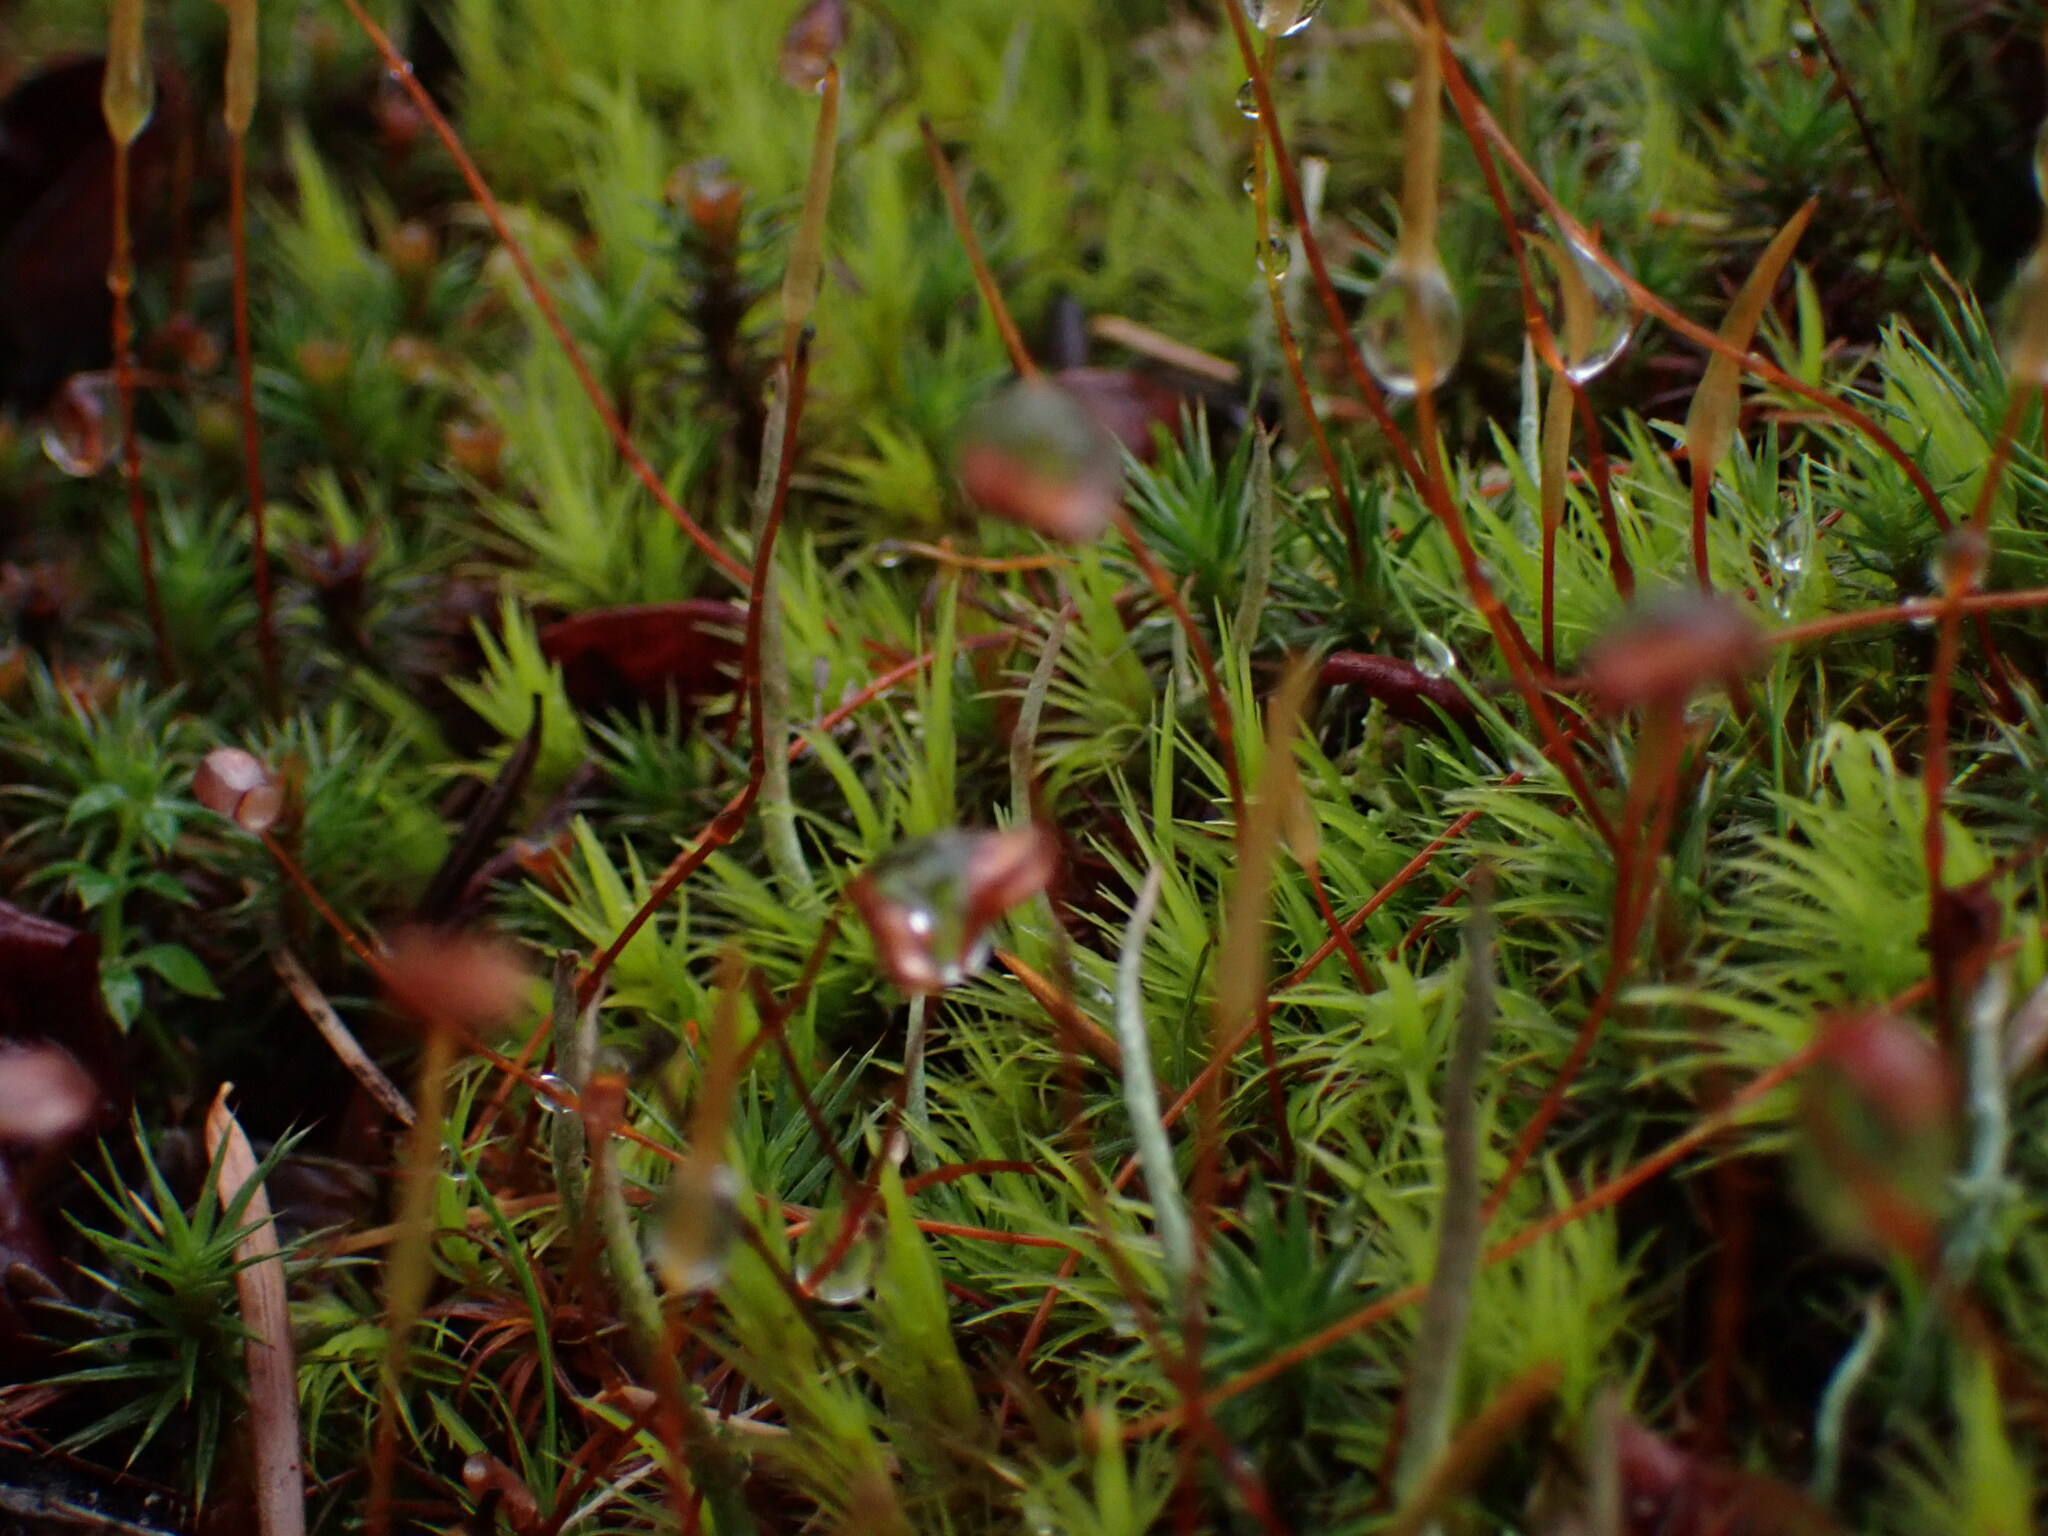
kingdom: Plantae
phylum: Bryophyta
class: Polytrichopsida
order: Polytrichales
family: Polytrichaceae
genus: Polytrichum
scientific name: Polytrichum juniperinum
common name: Juniper haircap moss
